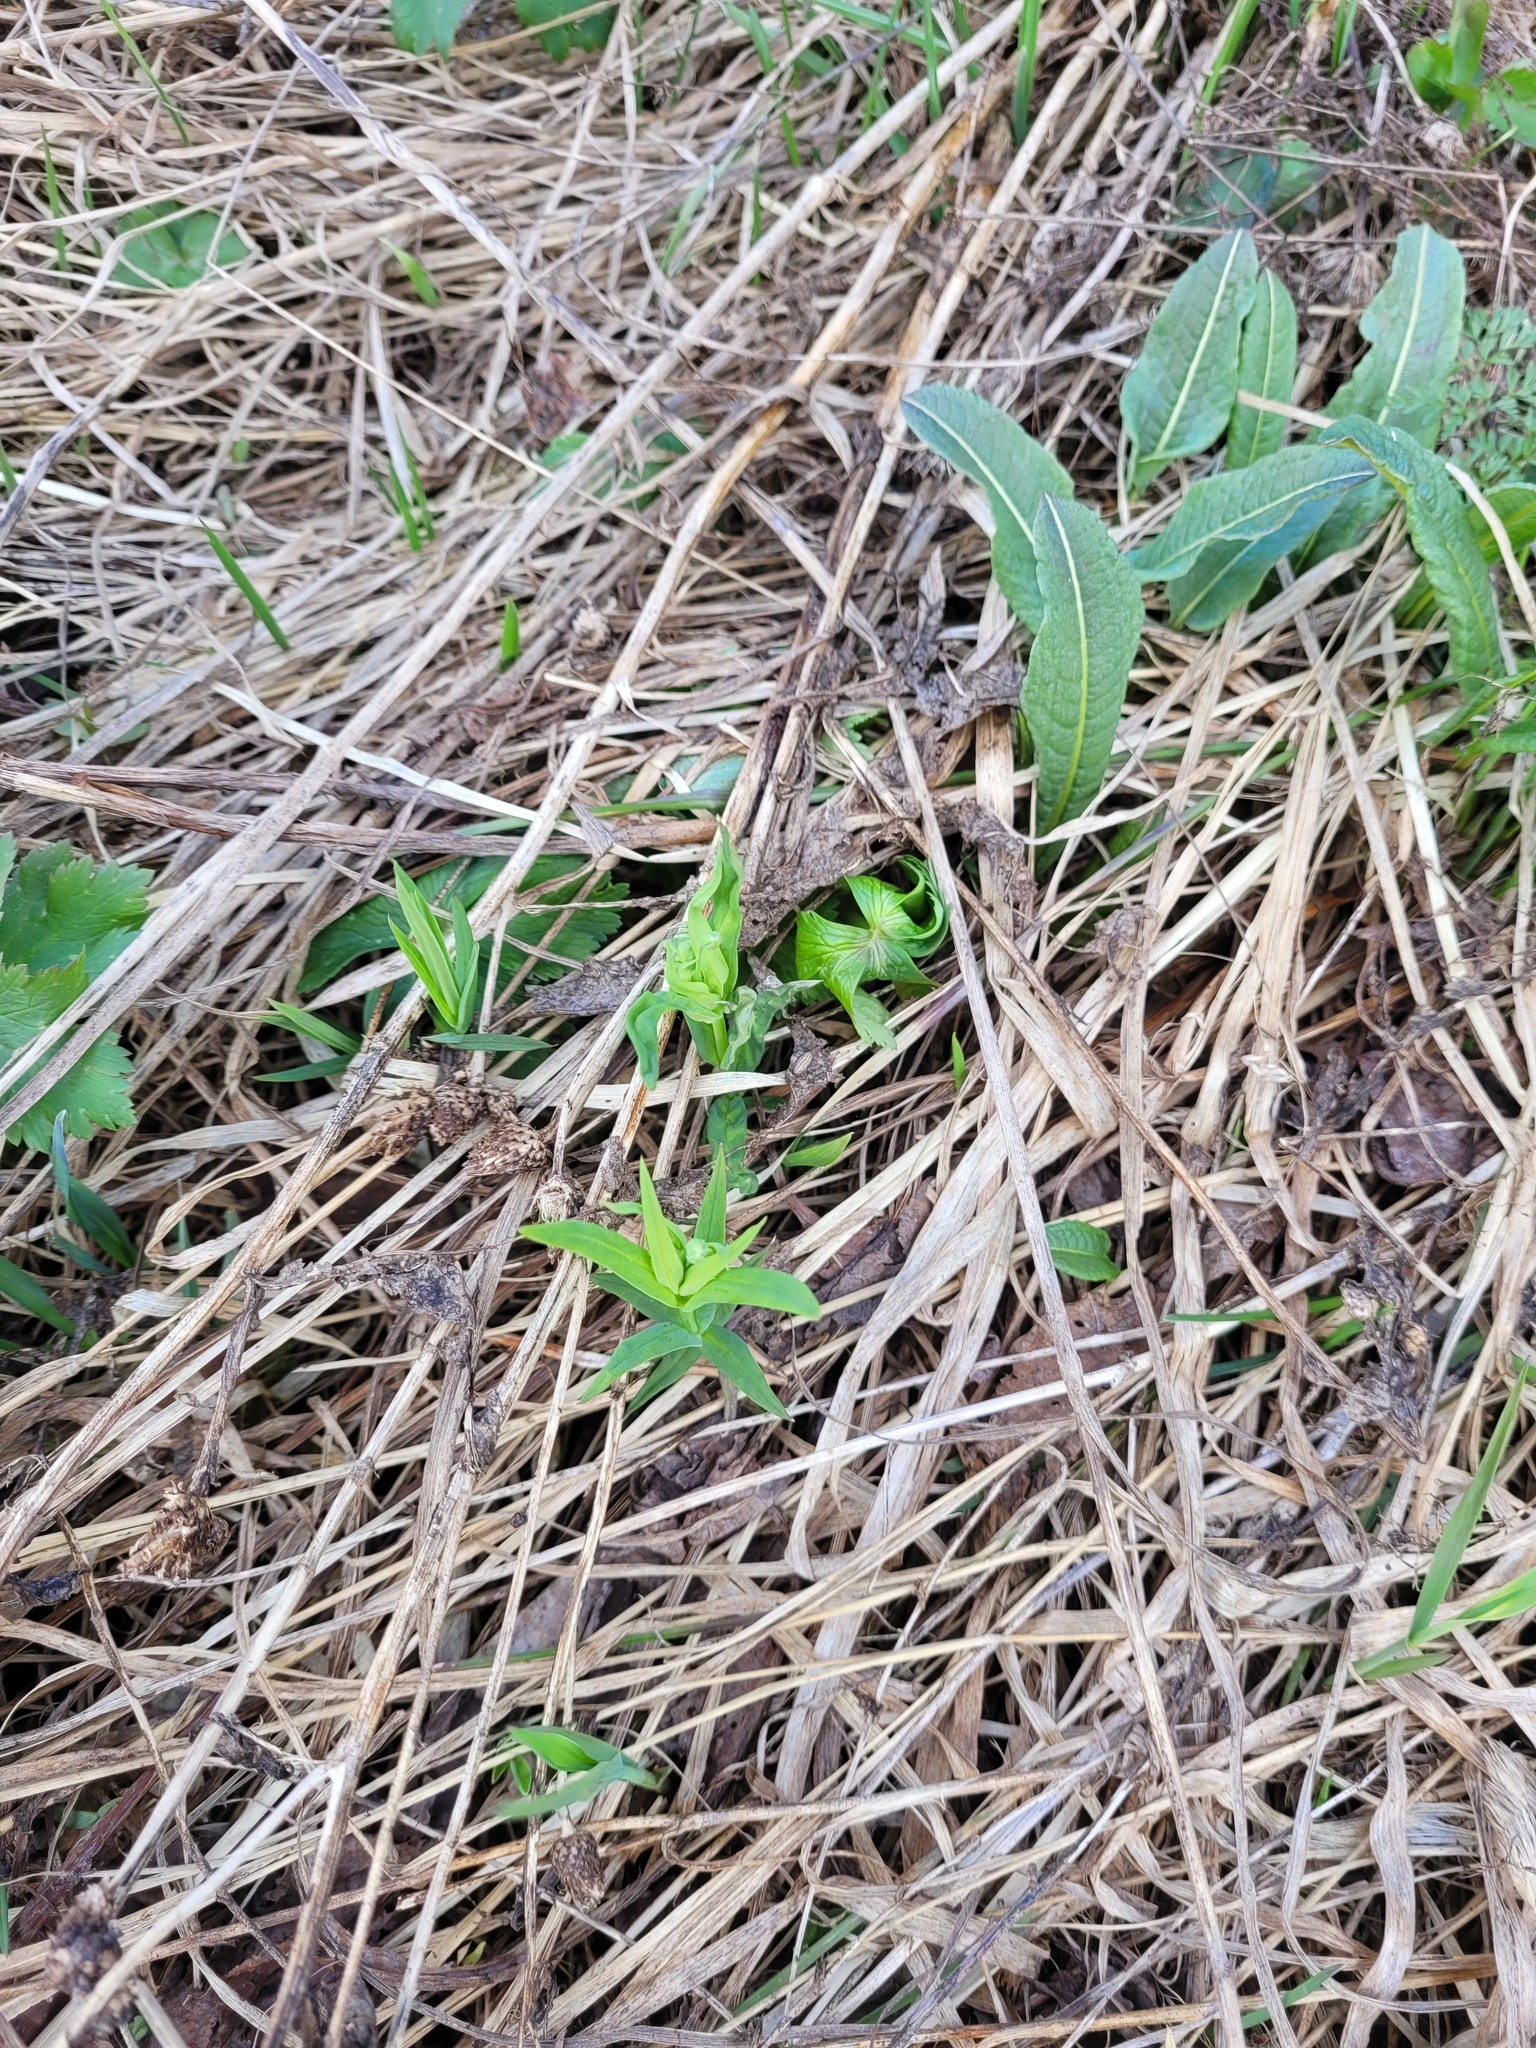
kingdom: Plantae
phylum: Tracheophyta
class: Magnoliopsida
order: Caryophyllales
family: Caryophyllaceae
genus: Rabelera
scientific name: Rabelera holostea
